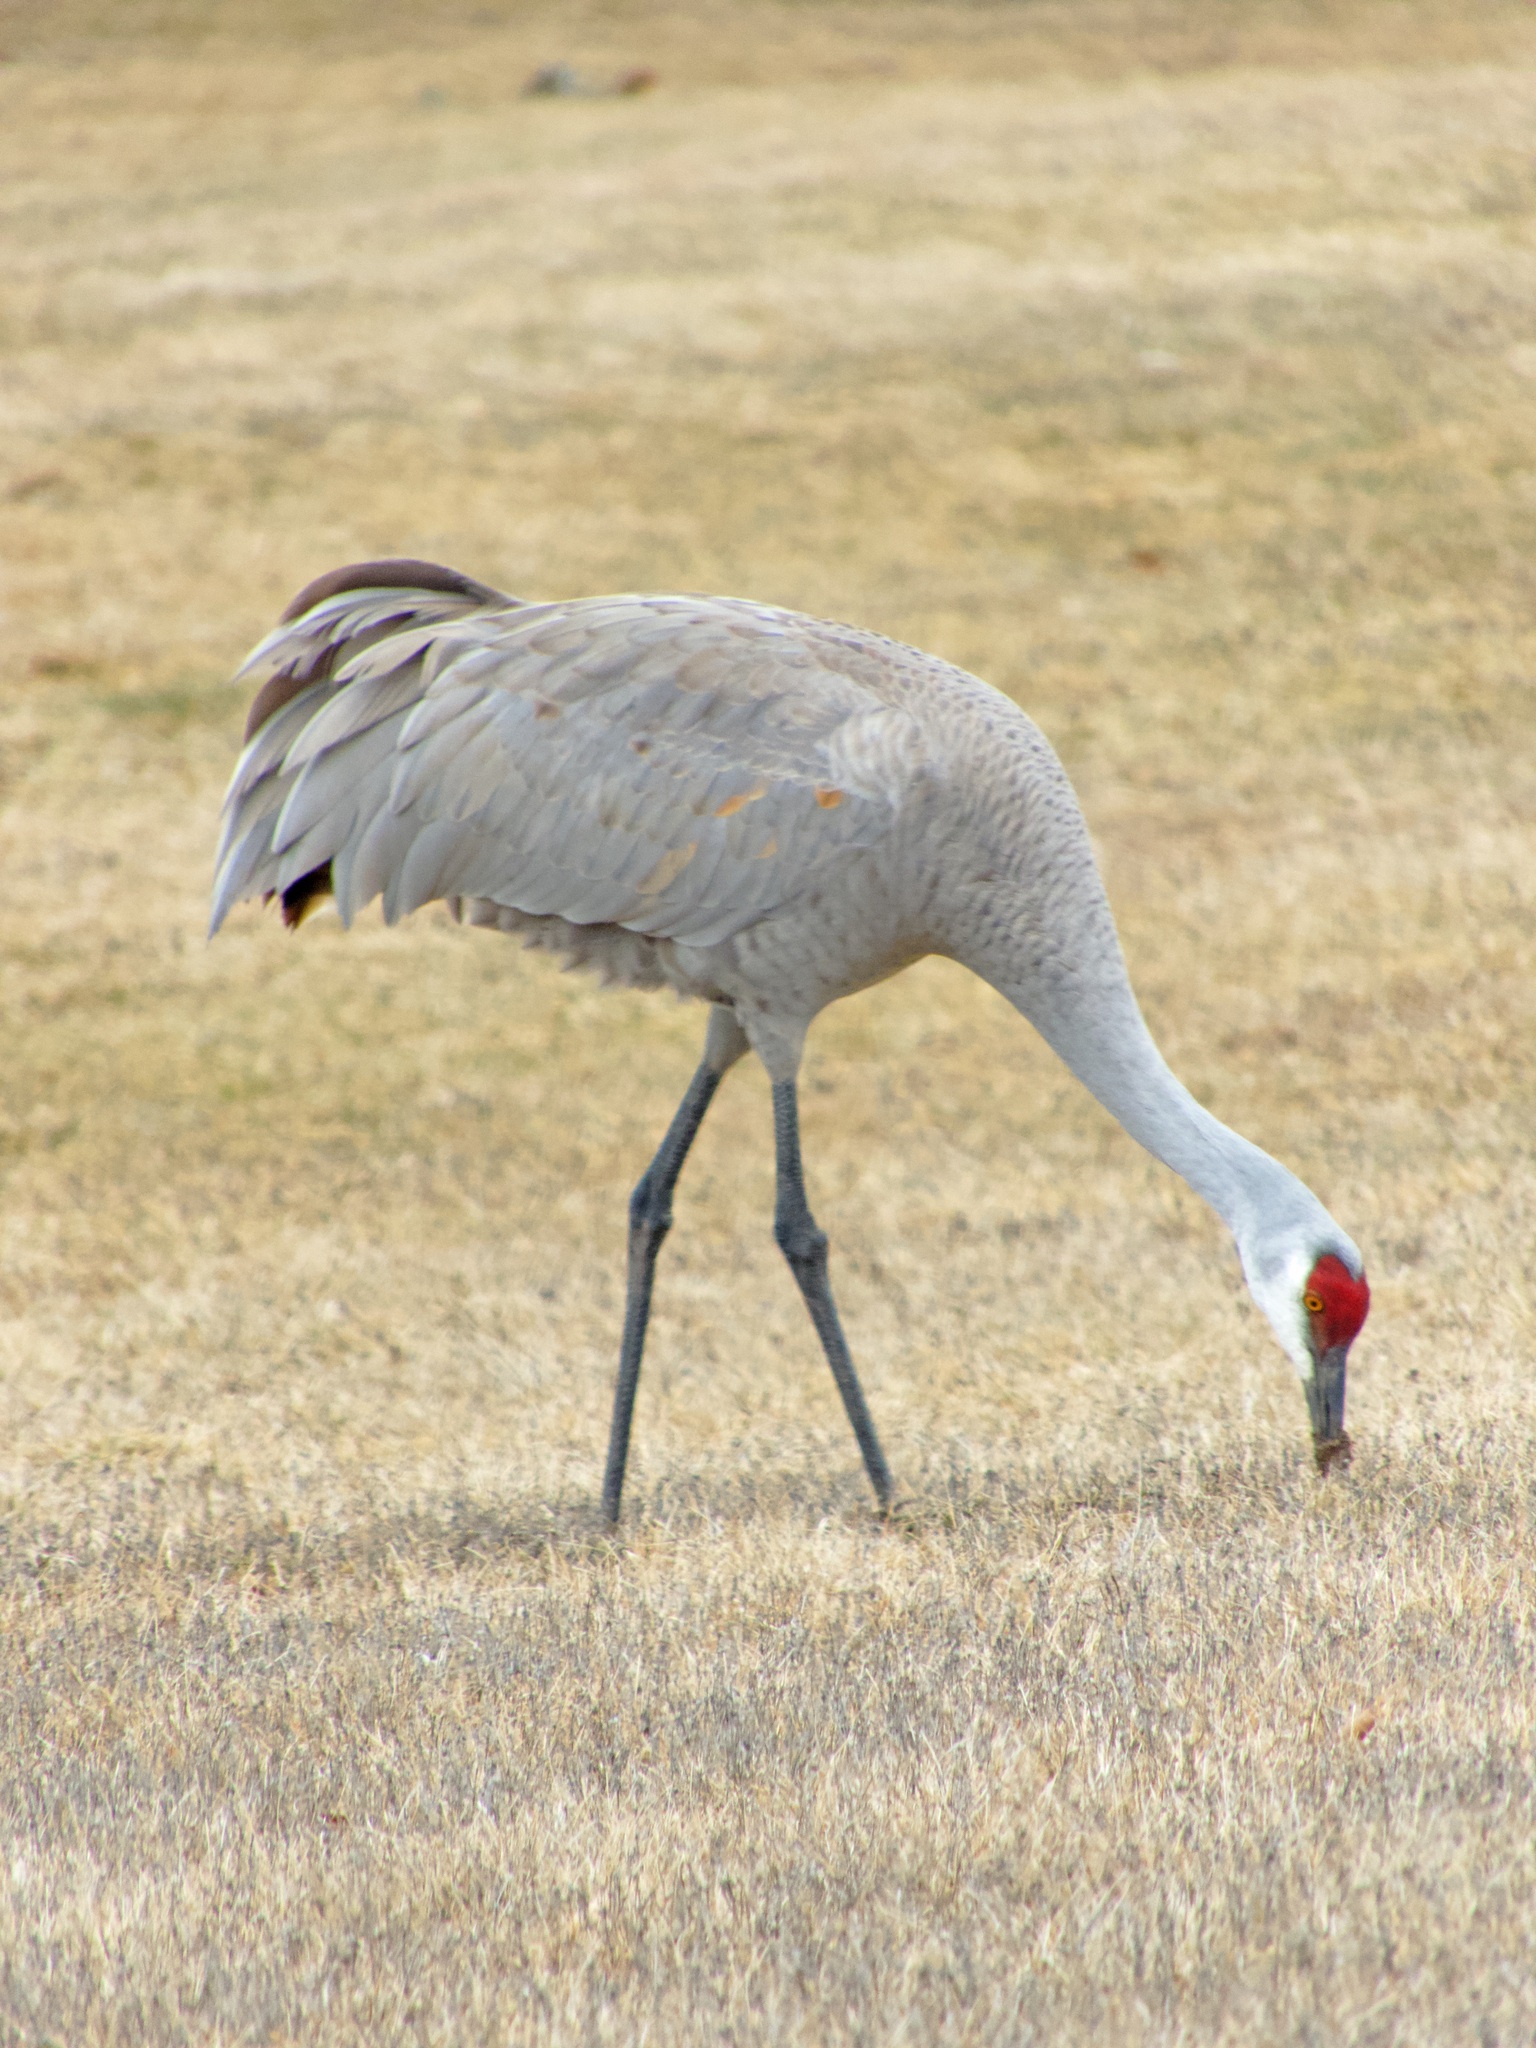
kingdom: Animalia
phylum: Chordata
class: Aves
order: Gruiformes
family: Gruidae
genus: Grus
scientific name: Grus canadensis
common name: Sandhill crane
